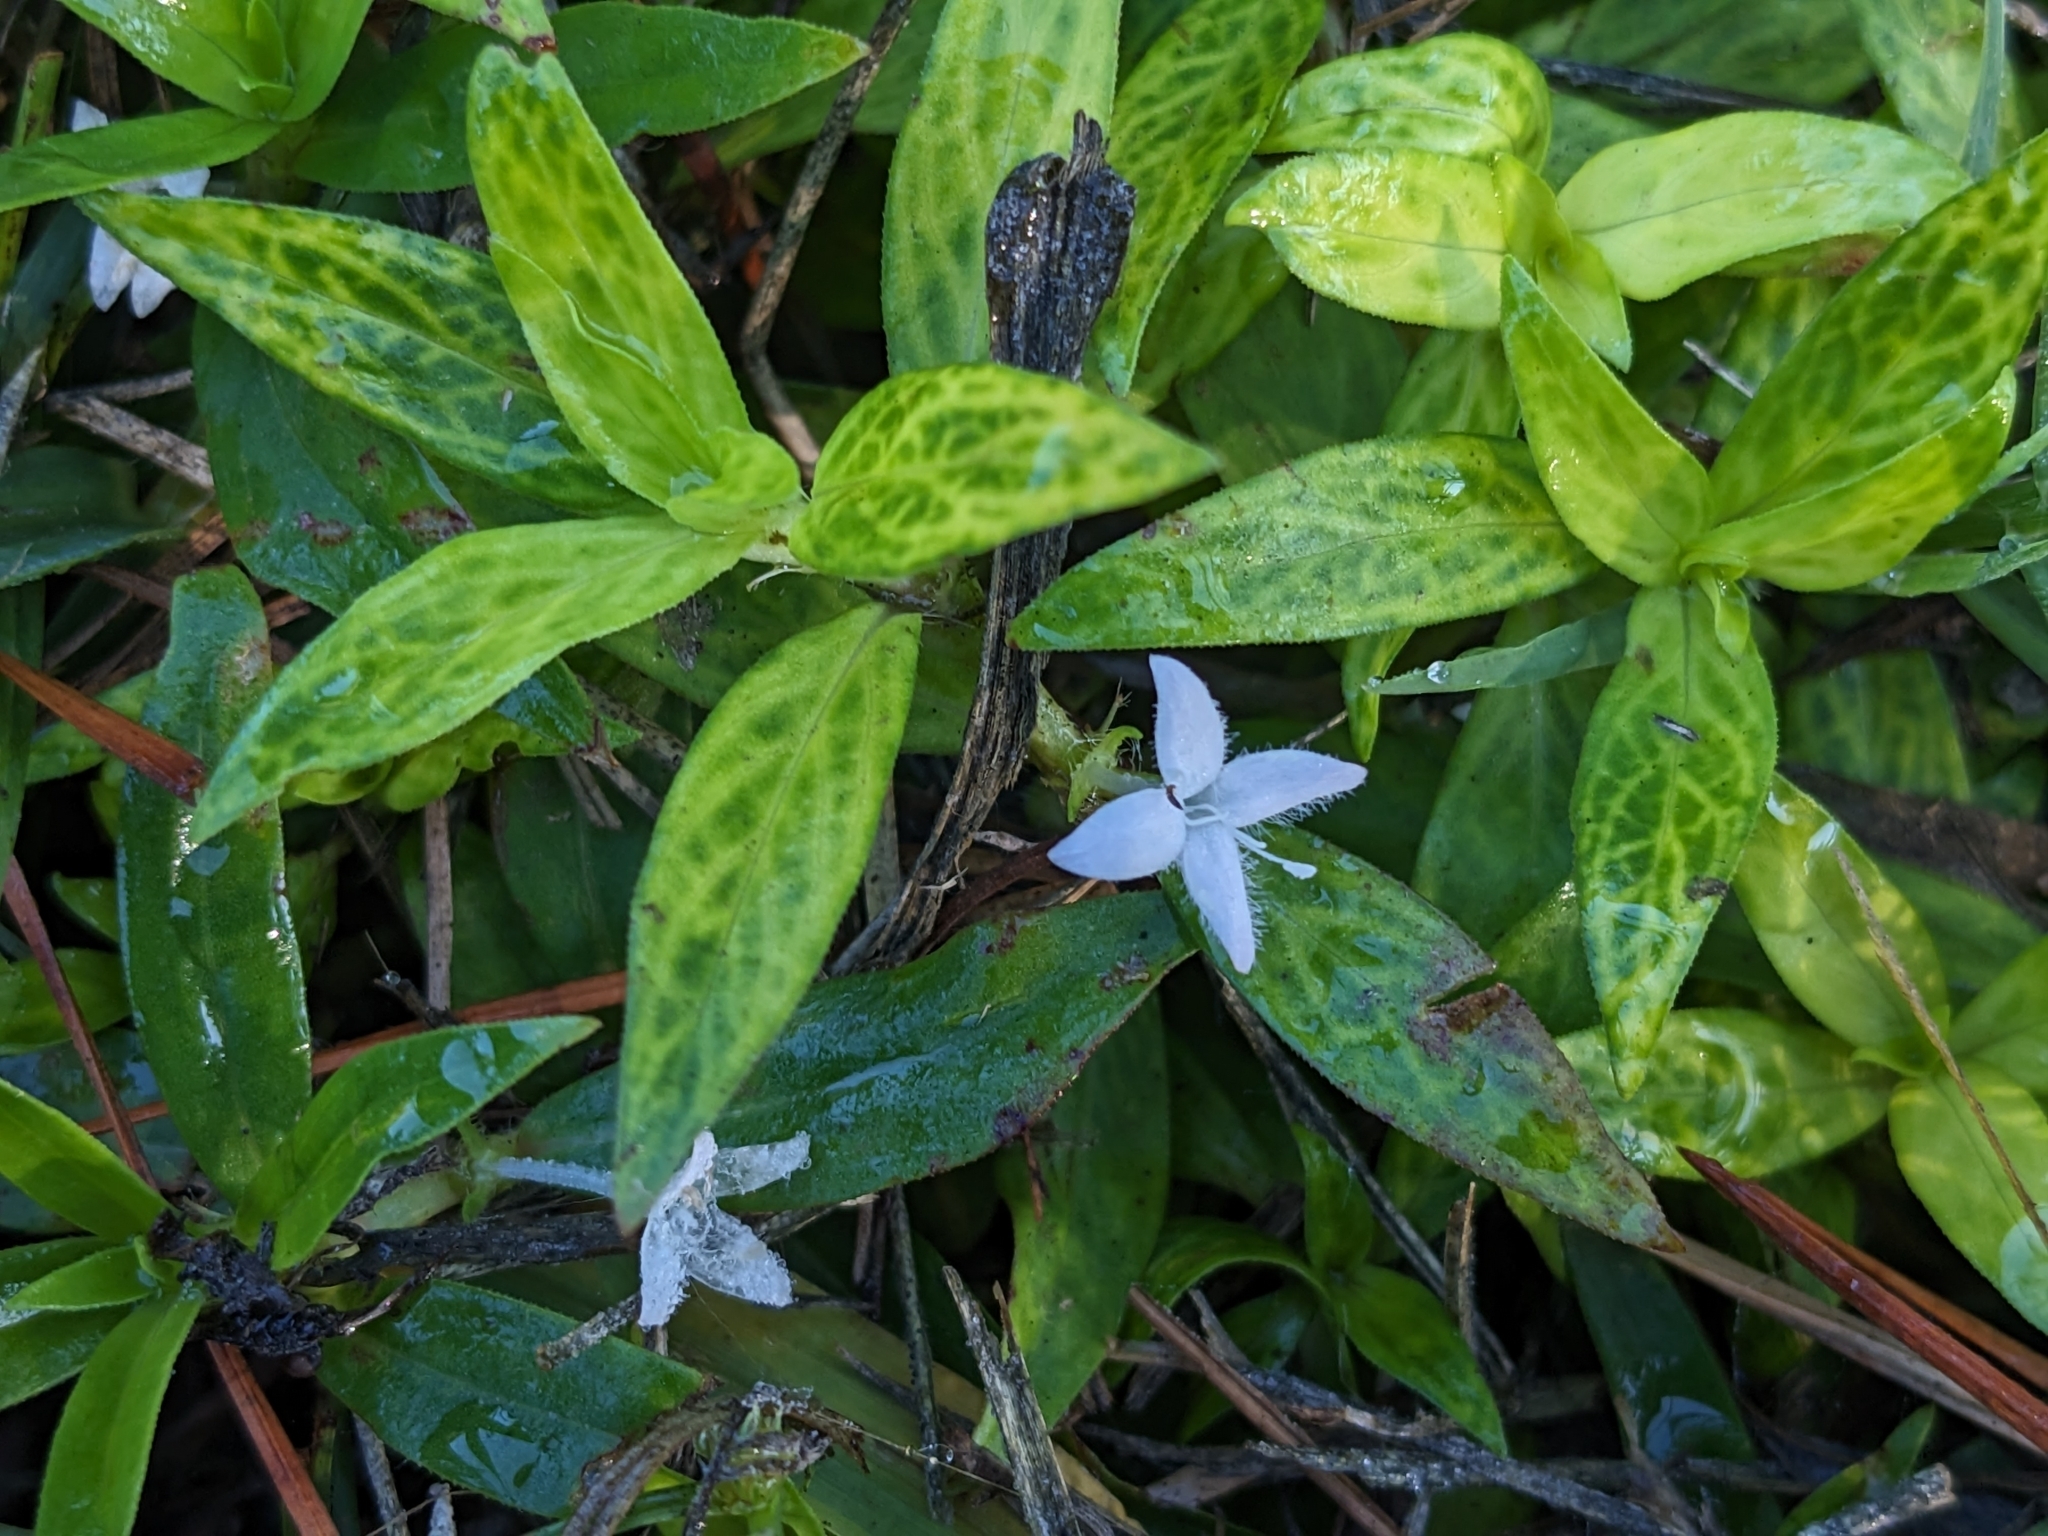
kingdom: Plantae
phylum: Tracheophyta
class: Magnoliopsida
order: Gentianales
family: Rubiaceae
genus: Diodia
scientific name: Diodia virginiana
